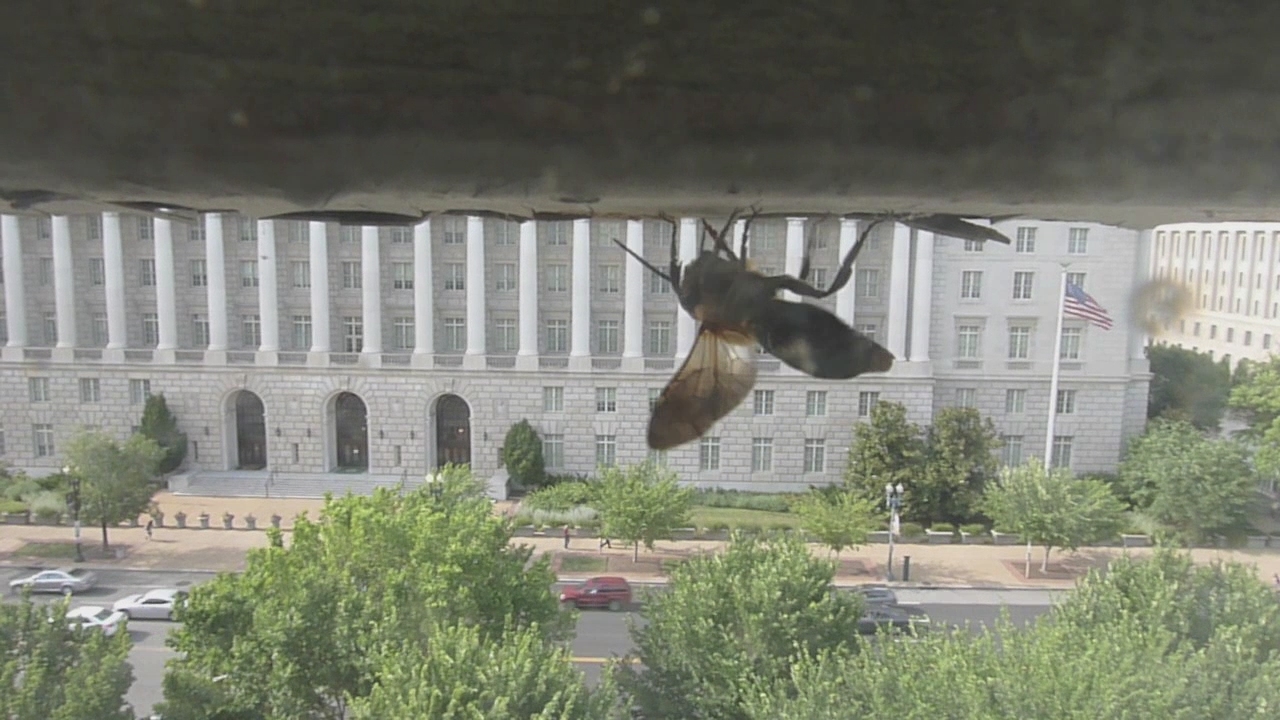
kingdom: Animalia
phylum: Arthropoda
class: Insecta
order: Hymenoptera
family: Megachilidae
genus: Megachile
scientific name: Megachile sculpturalis
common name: Sculptured resin bee
